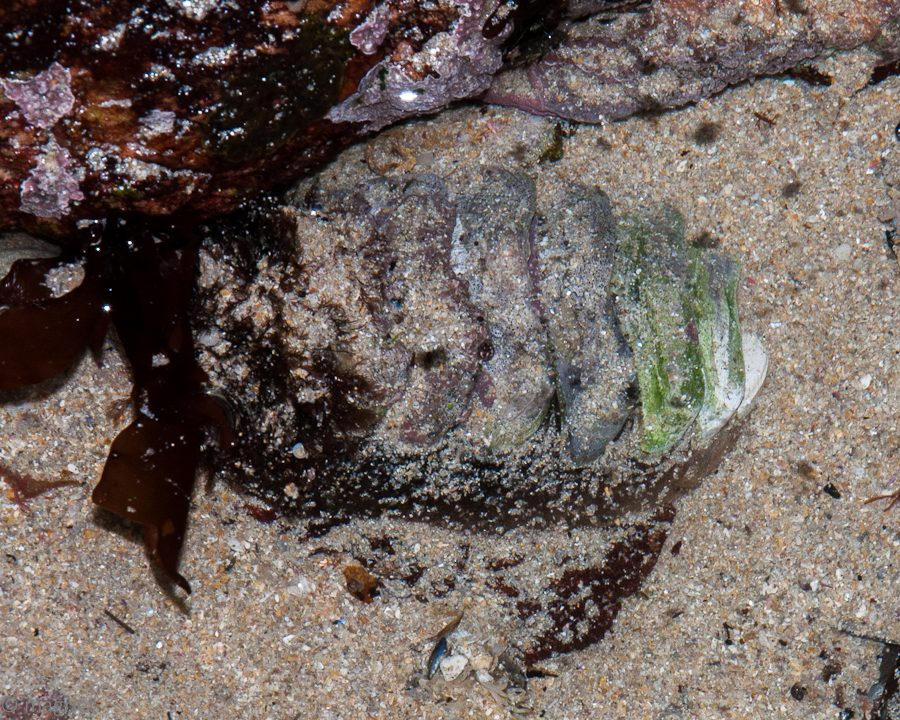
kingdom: Animalia
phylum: Mollusca
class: Polyplacophora
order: Chitonida
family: Chaetopleuridae
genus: Dinoplax
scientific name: Dinoplax gigas
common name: Armadillo
